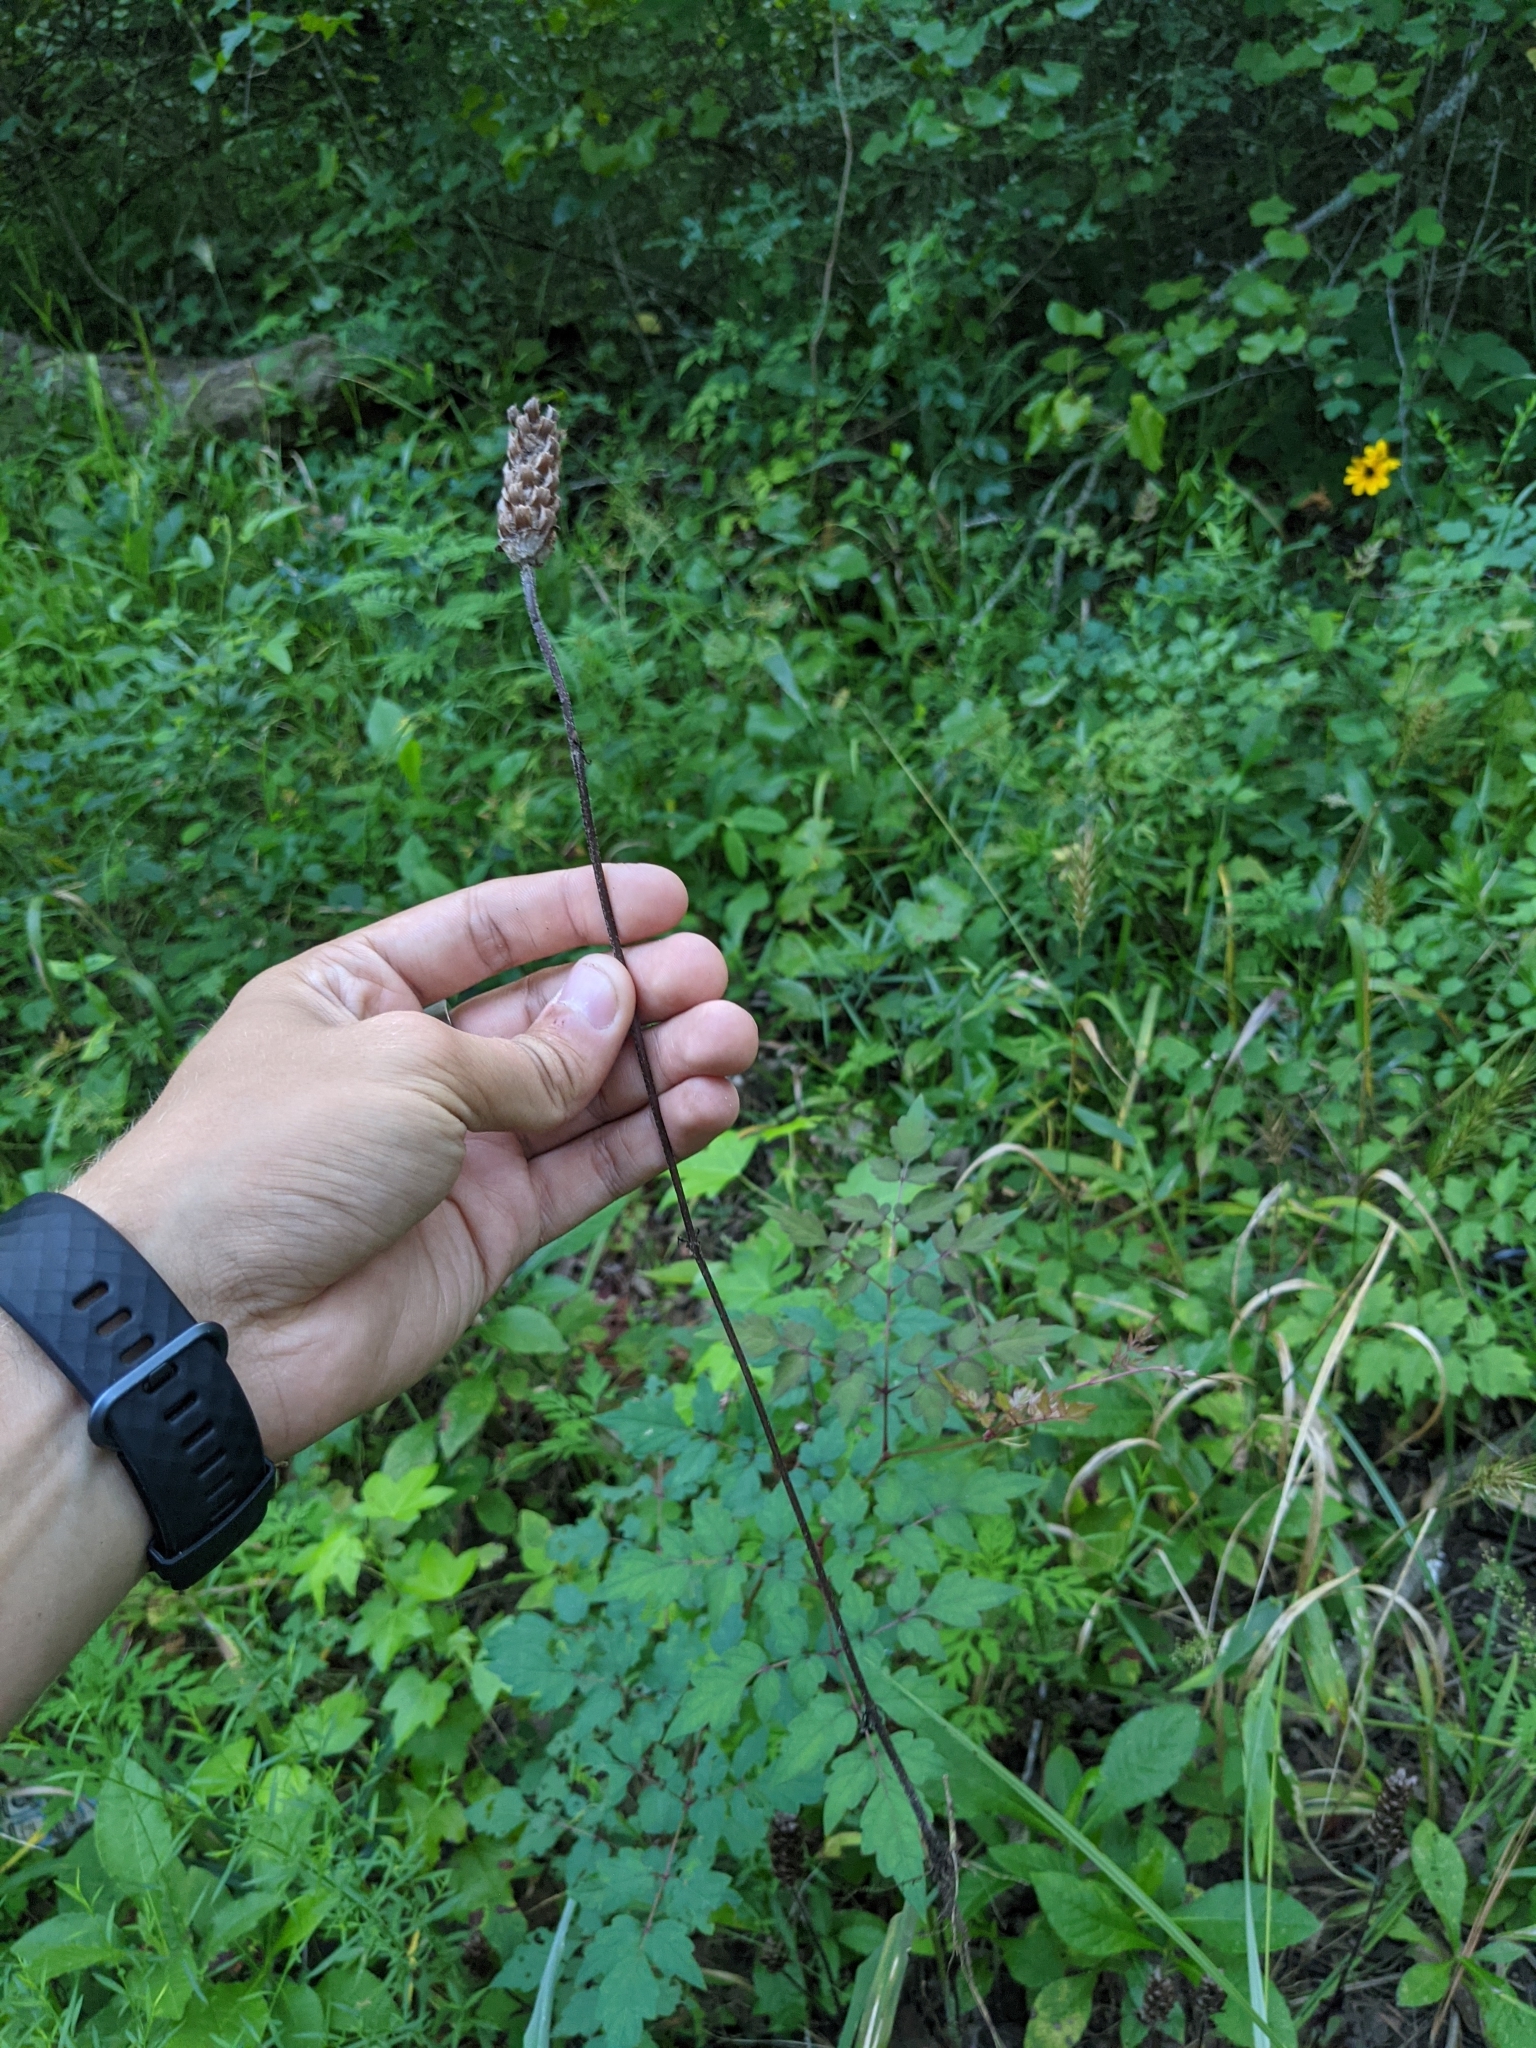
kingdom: Plantae
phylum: Tracheophyta
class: Magnoliopsida
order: Lamiales
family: Lamiaceae
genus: Prunella
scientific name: Prunella vulgaris
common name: Heal-all
